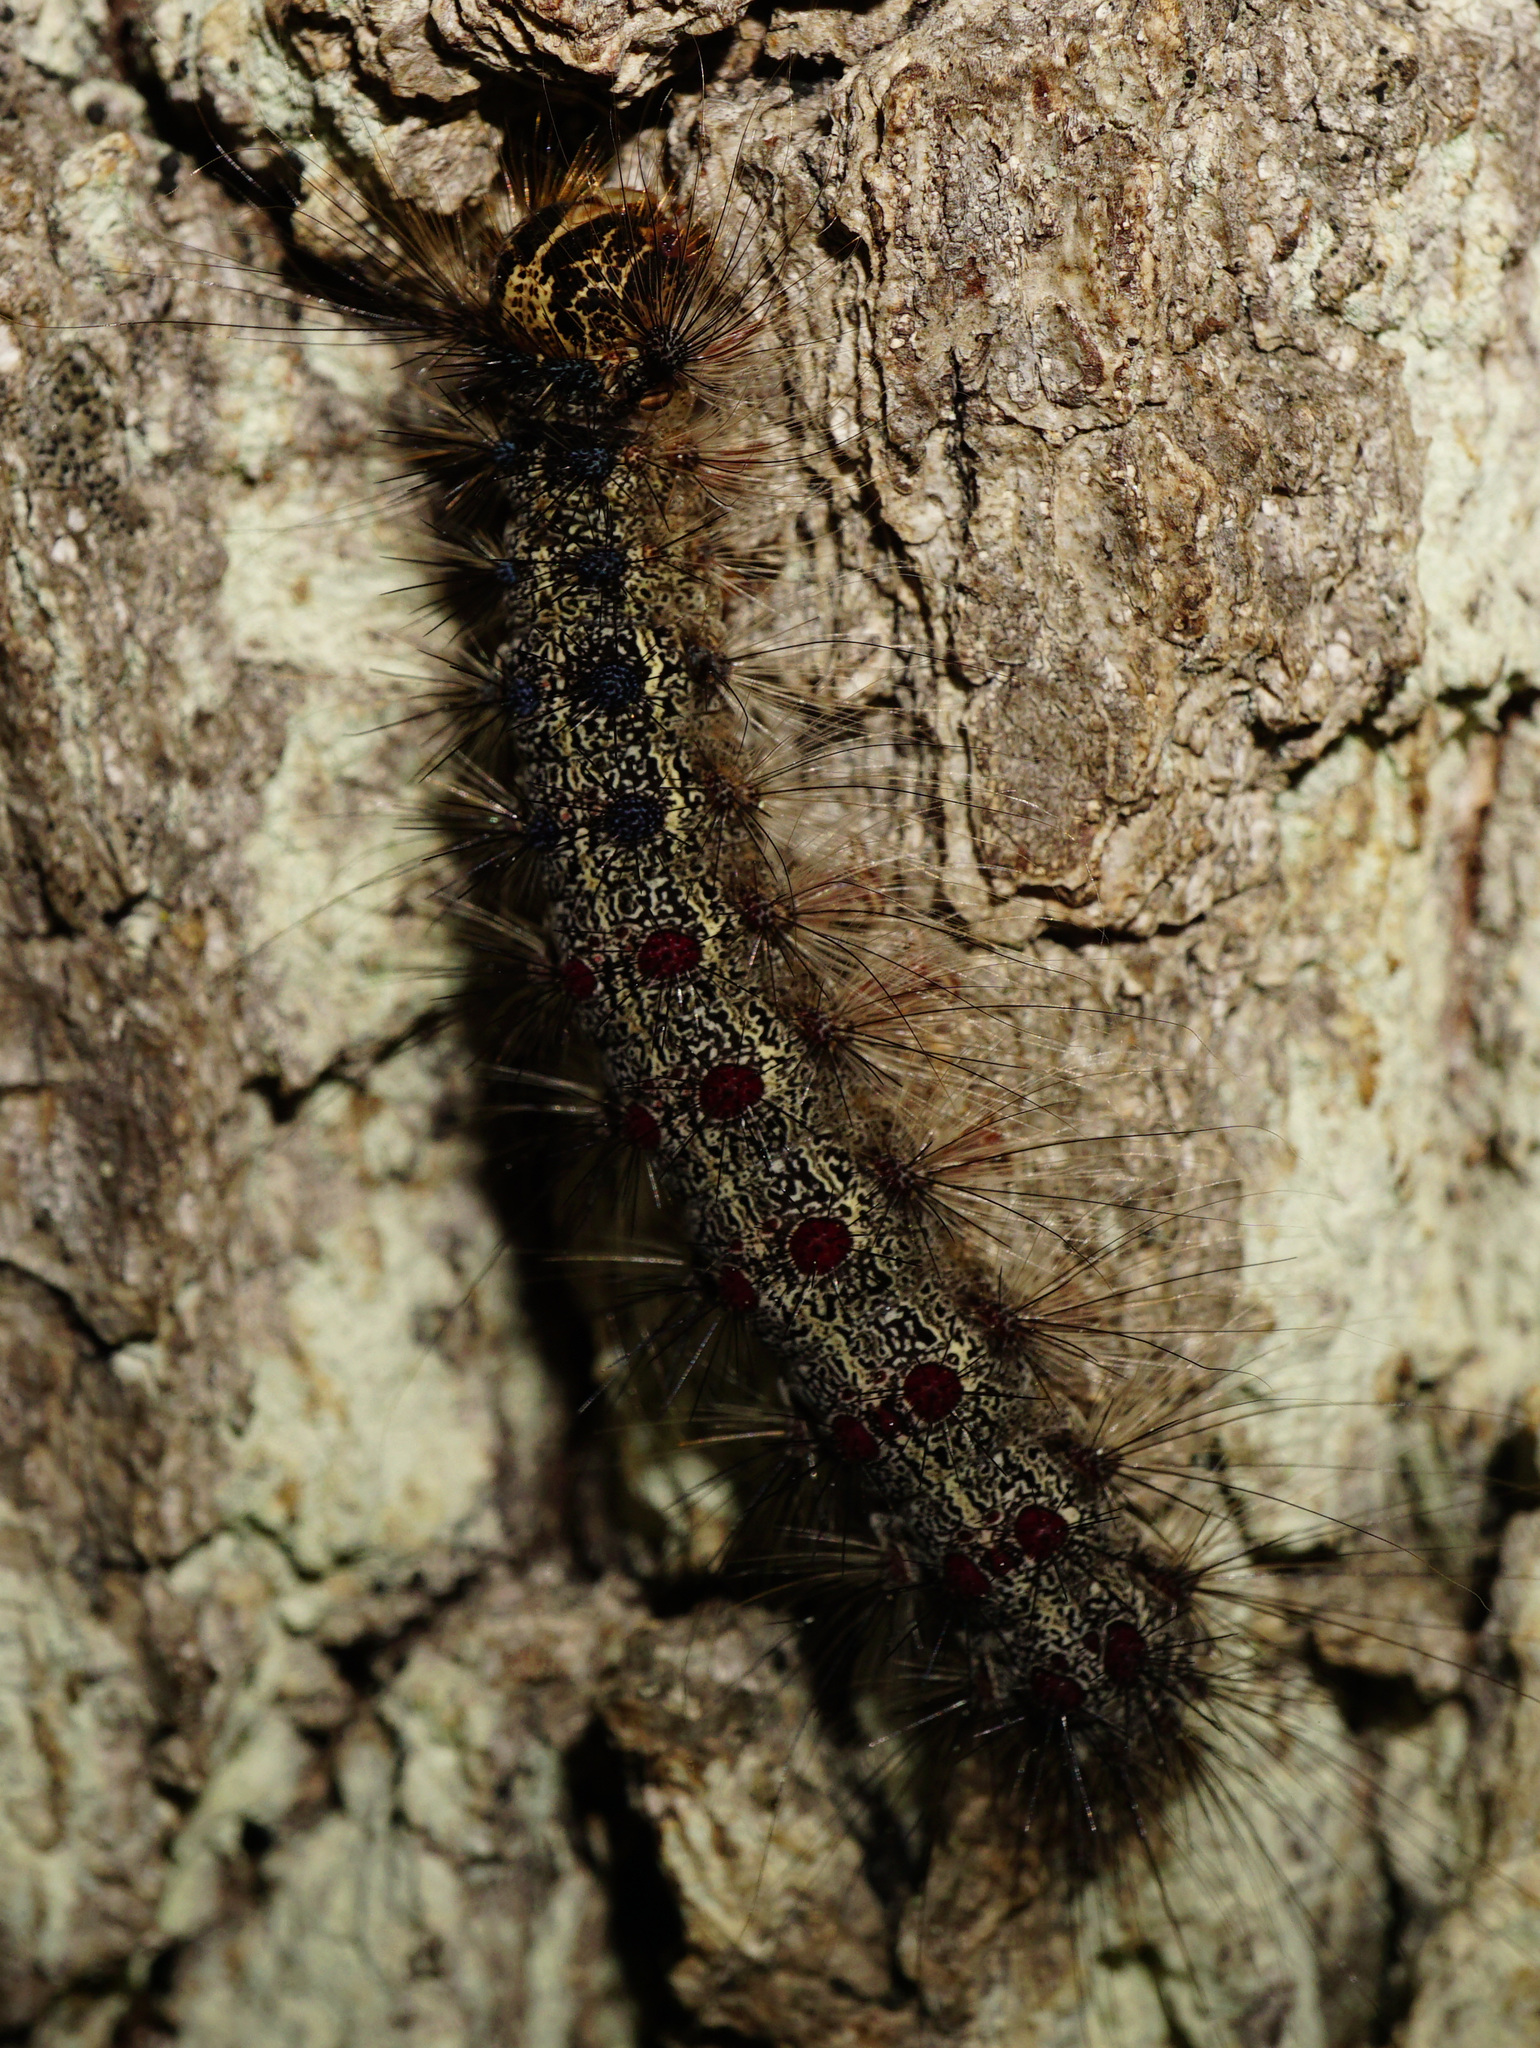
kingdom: Animalia
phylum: Arthropoda
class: Insecta
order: Lepidoptera
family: Erebidae
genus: Lymantria
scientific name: Lymantria dispar
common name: Gypsy moth
